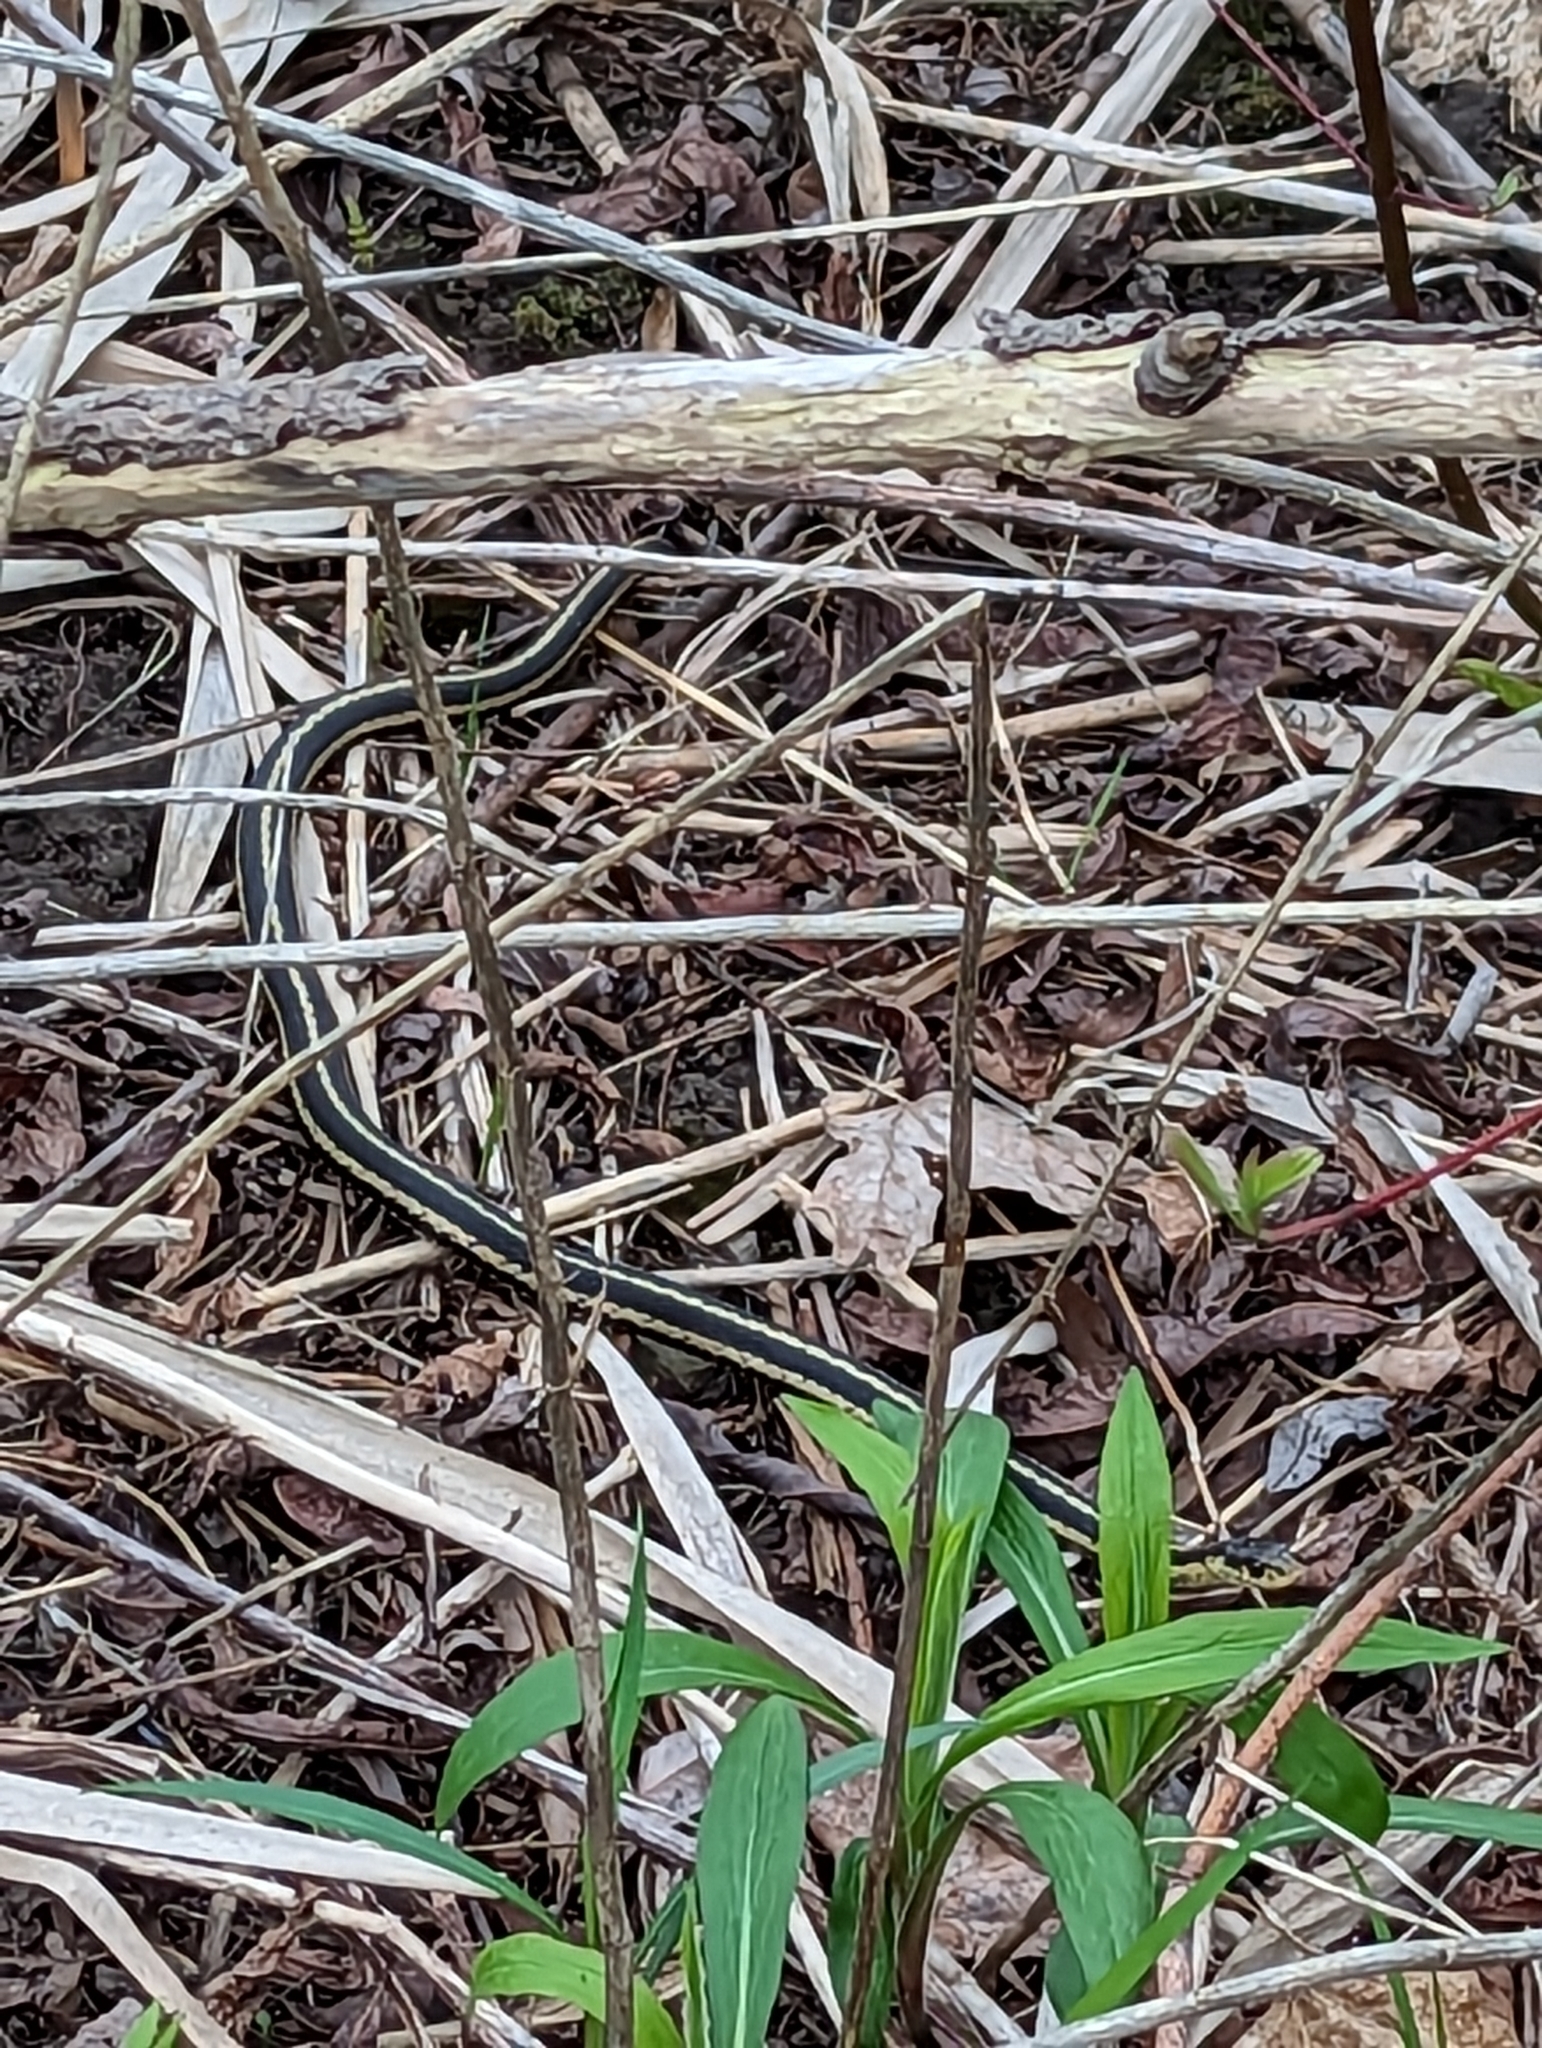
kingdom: Animalia
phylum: Chordata
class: Squamata
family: Colubridae
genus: Thamnophis
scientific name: Thamnophis sirtalis
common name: Common garter snake
